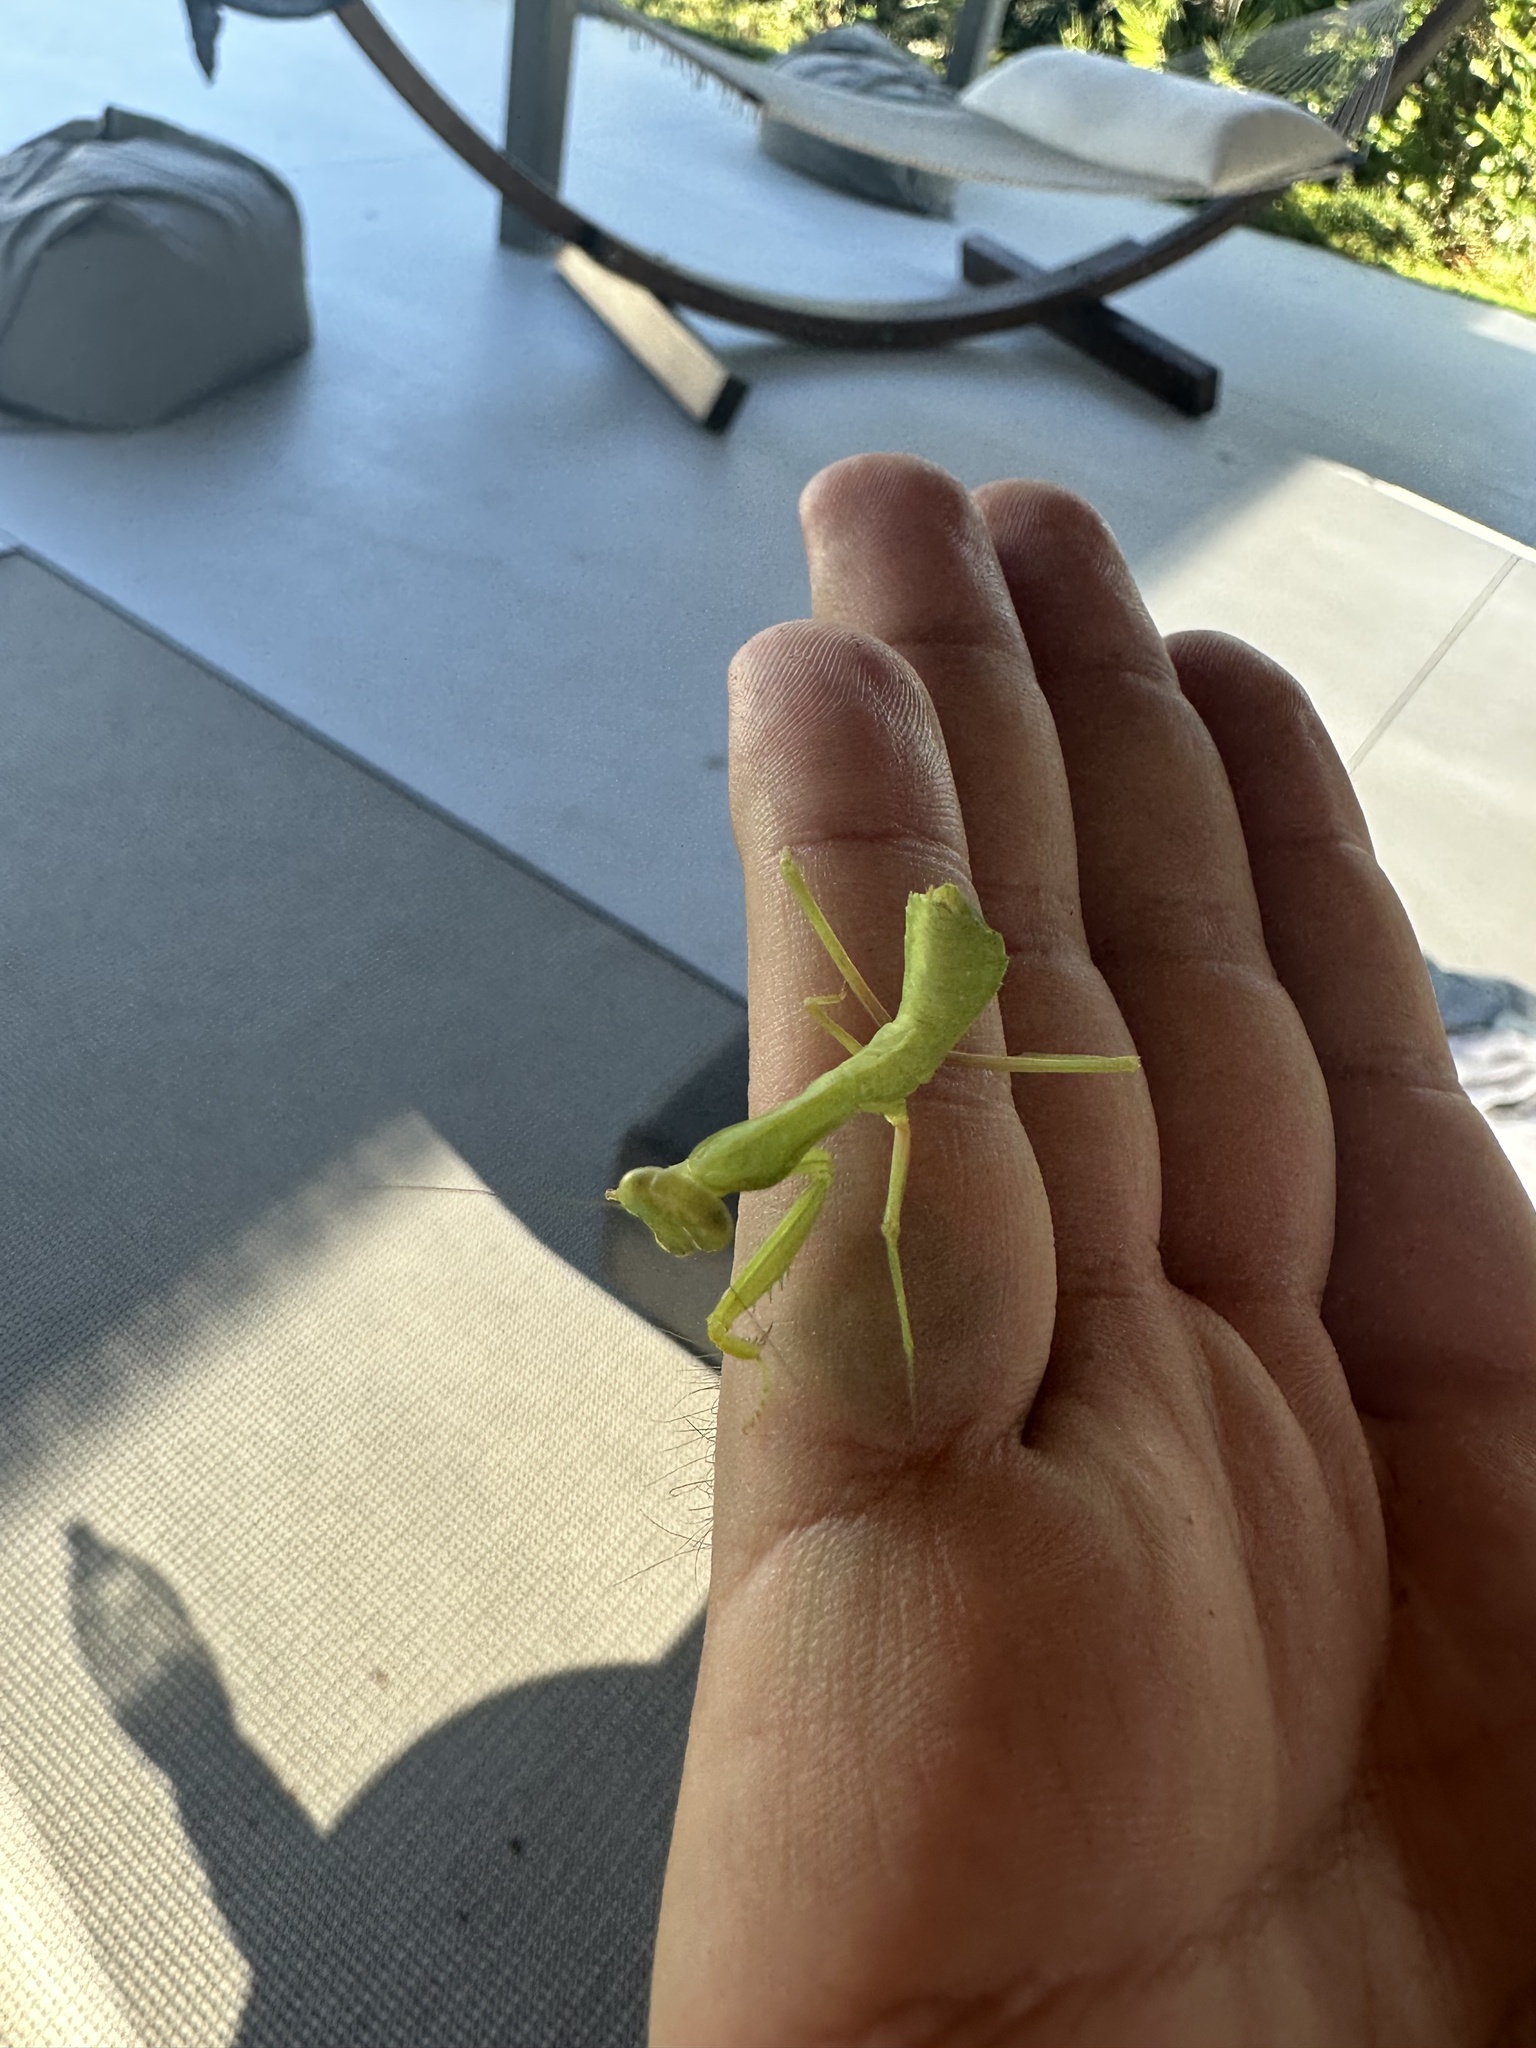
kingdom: Animalia
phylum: Arthropoda
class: Insecta
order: Mantodea
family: Mantidae
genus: Hierodula
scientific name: Hierodula transcaucasica
